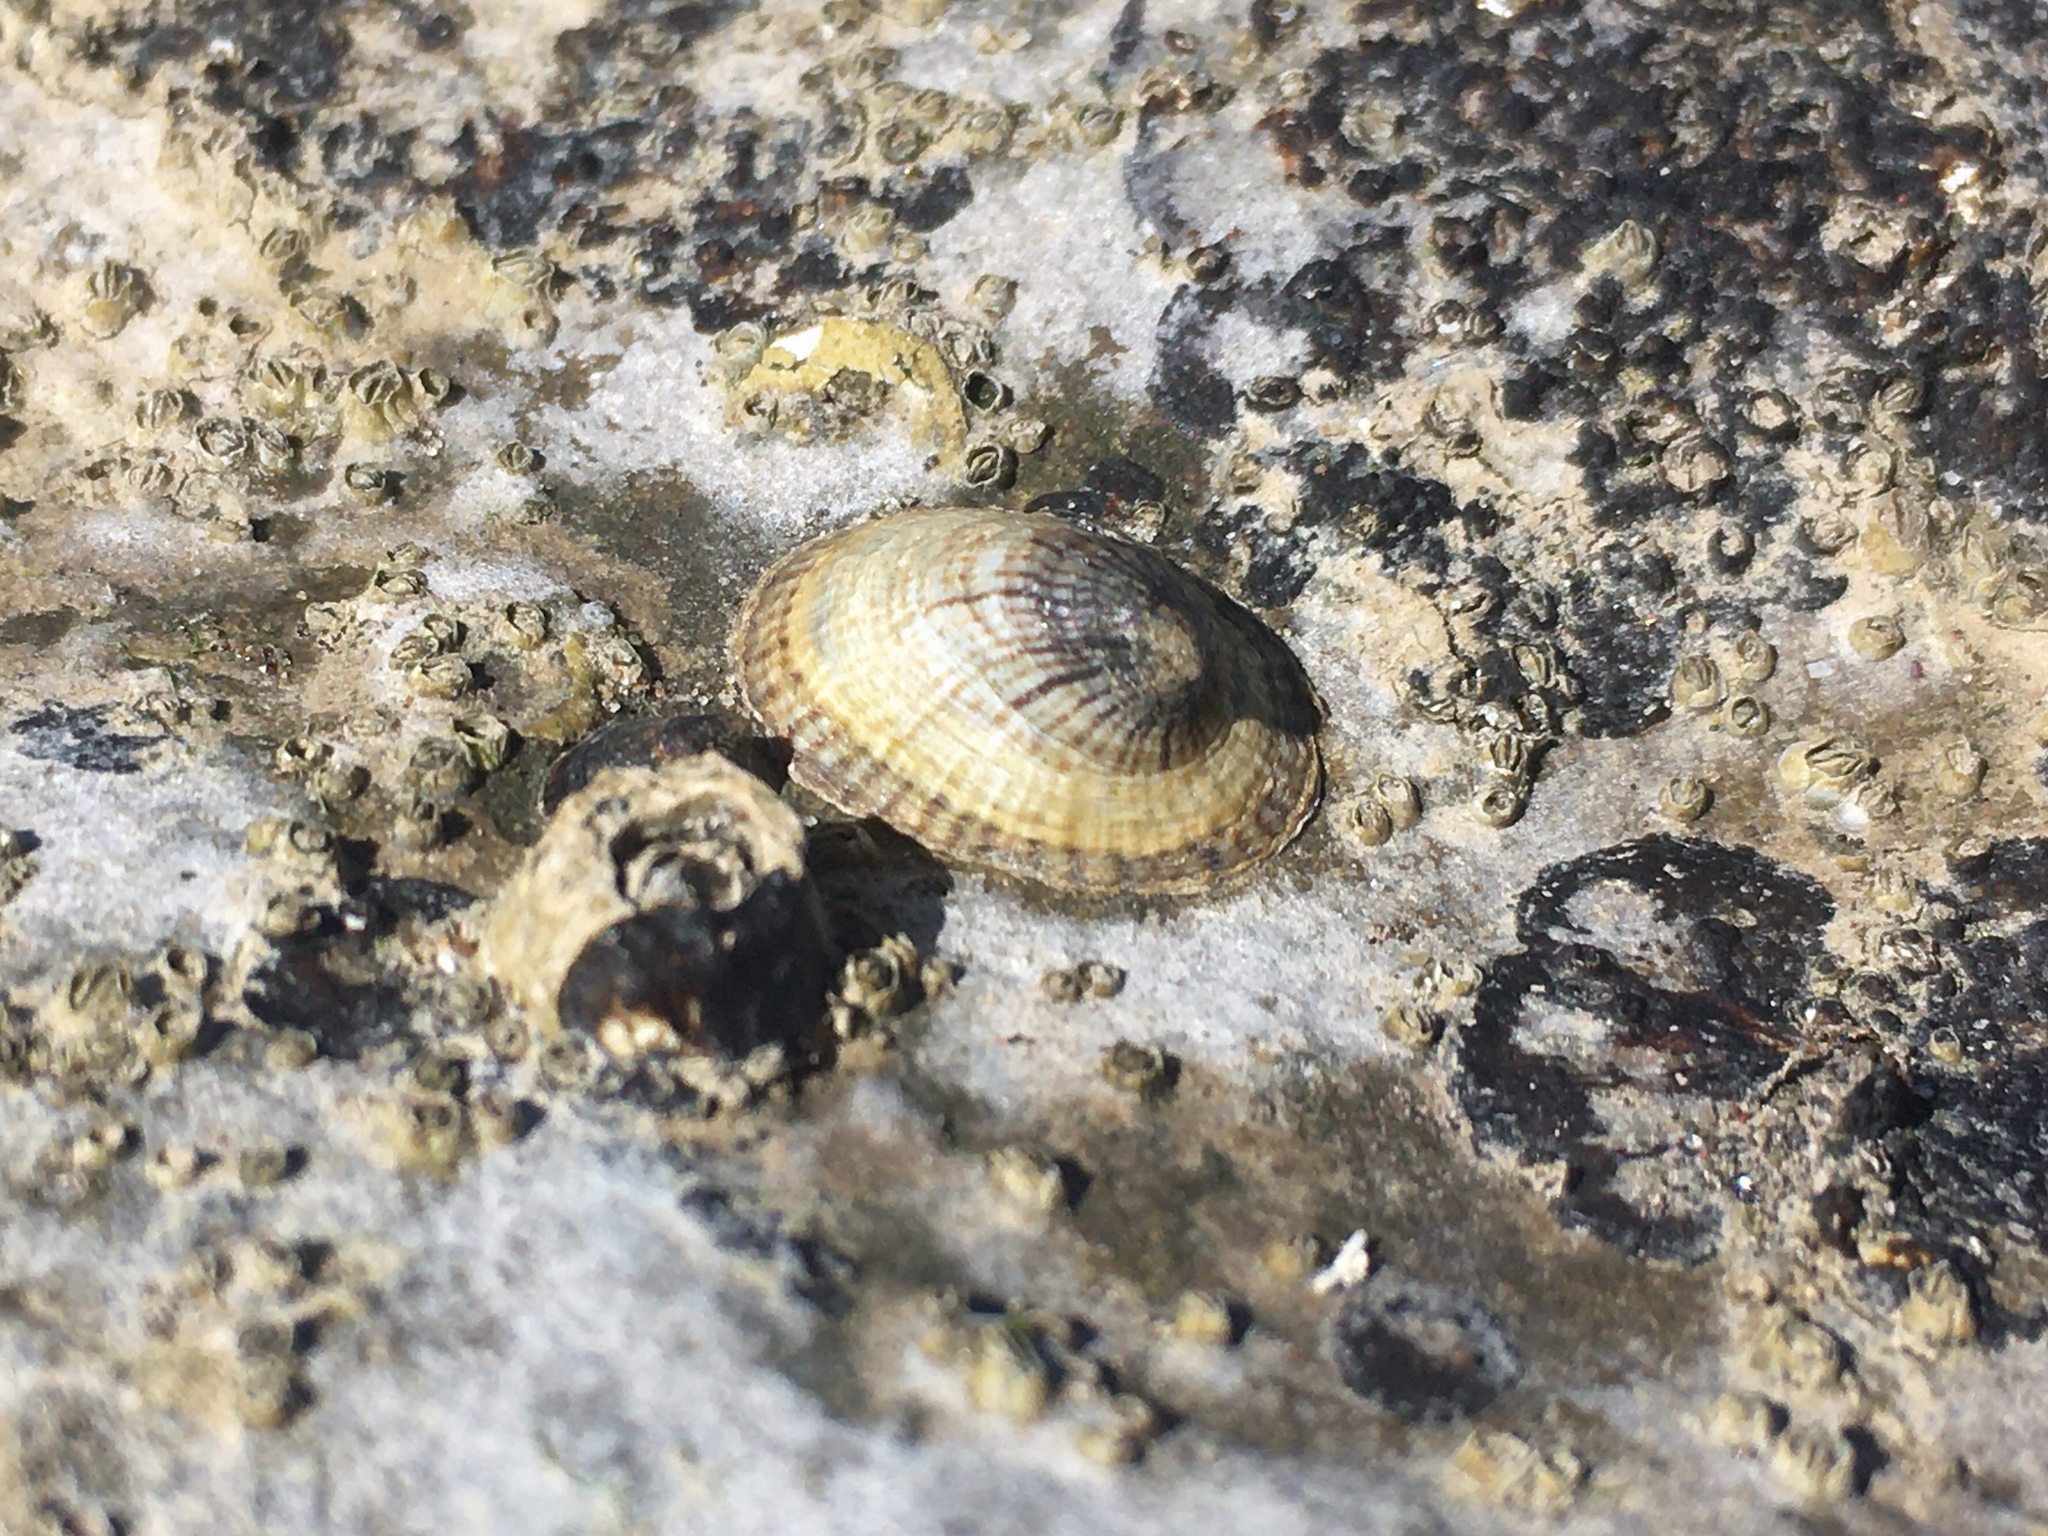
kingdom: Animalia
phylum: Mollusca
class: Gastropoda
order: Siphonariida
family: Siphonariidae
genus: Siphonaria
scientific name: Siphonaria lessonii
